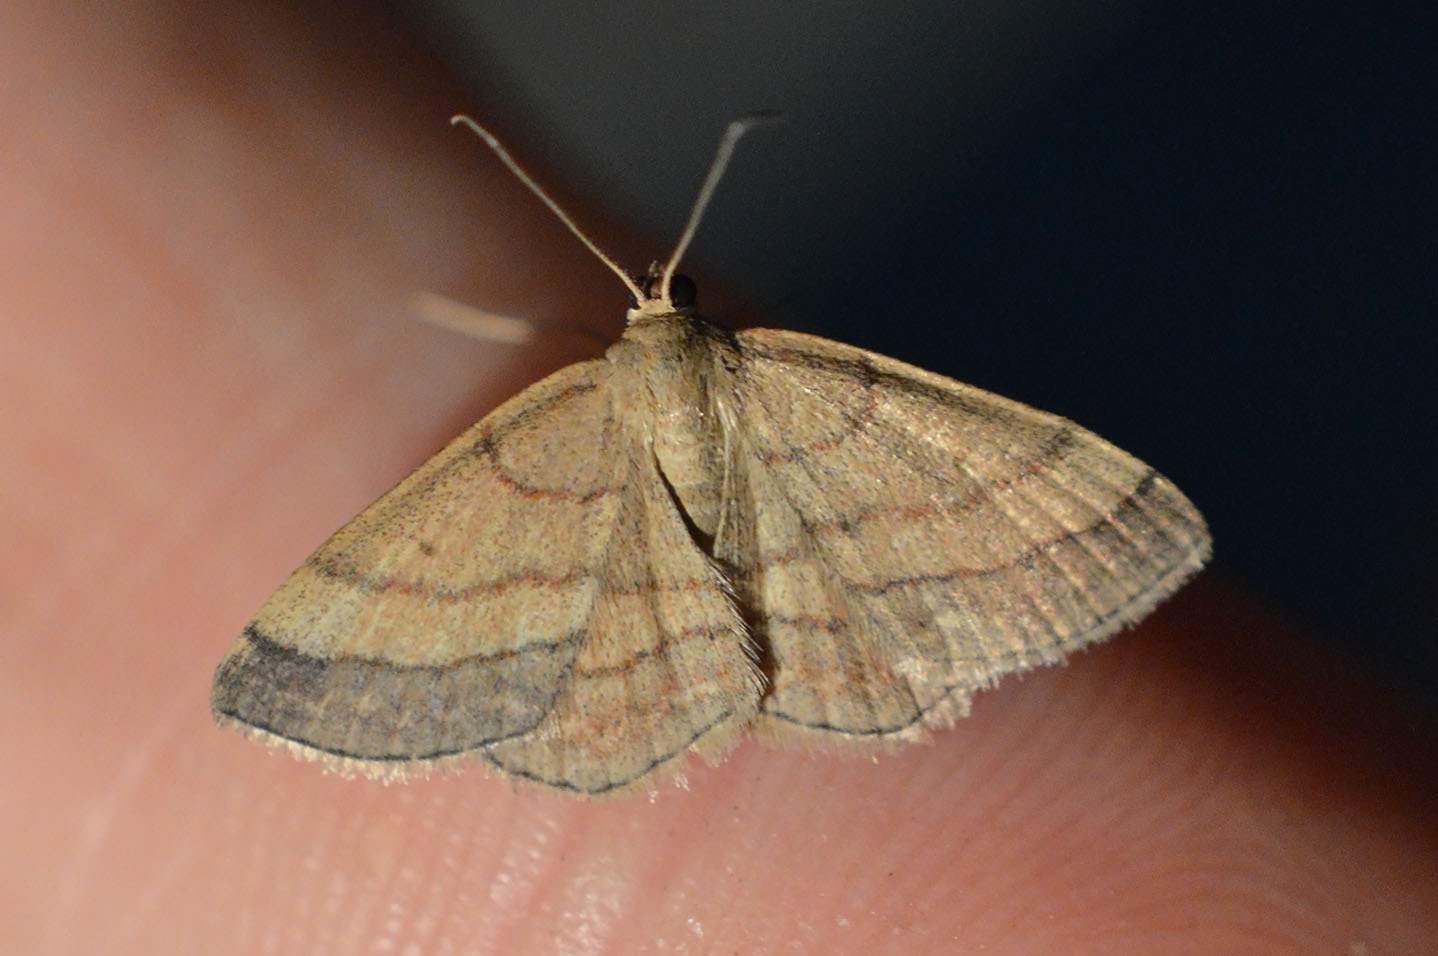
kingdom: Animalia
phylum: Arthropoda
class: Insecta
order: Lepidoptera
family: Geometridae
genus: Scopula
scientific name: Scopula rubiginata
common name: Tawny wave
